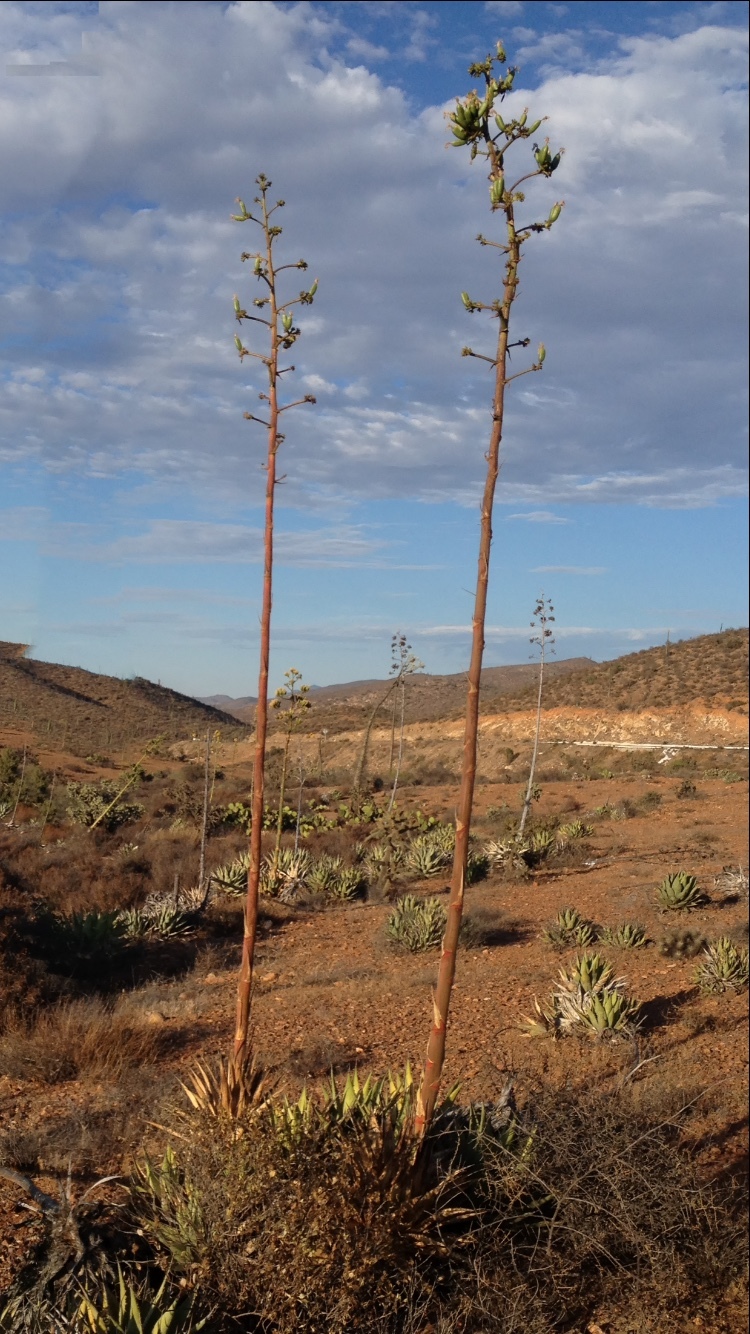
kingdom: Plantae
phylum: Tracheophyta
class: Liliopsida
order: Asparagales
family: Asparagaceae
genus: Agave
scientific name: Agave cerulata
